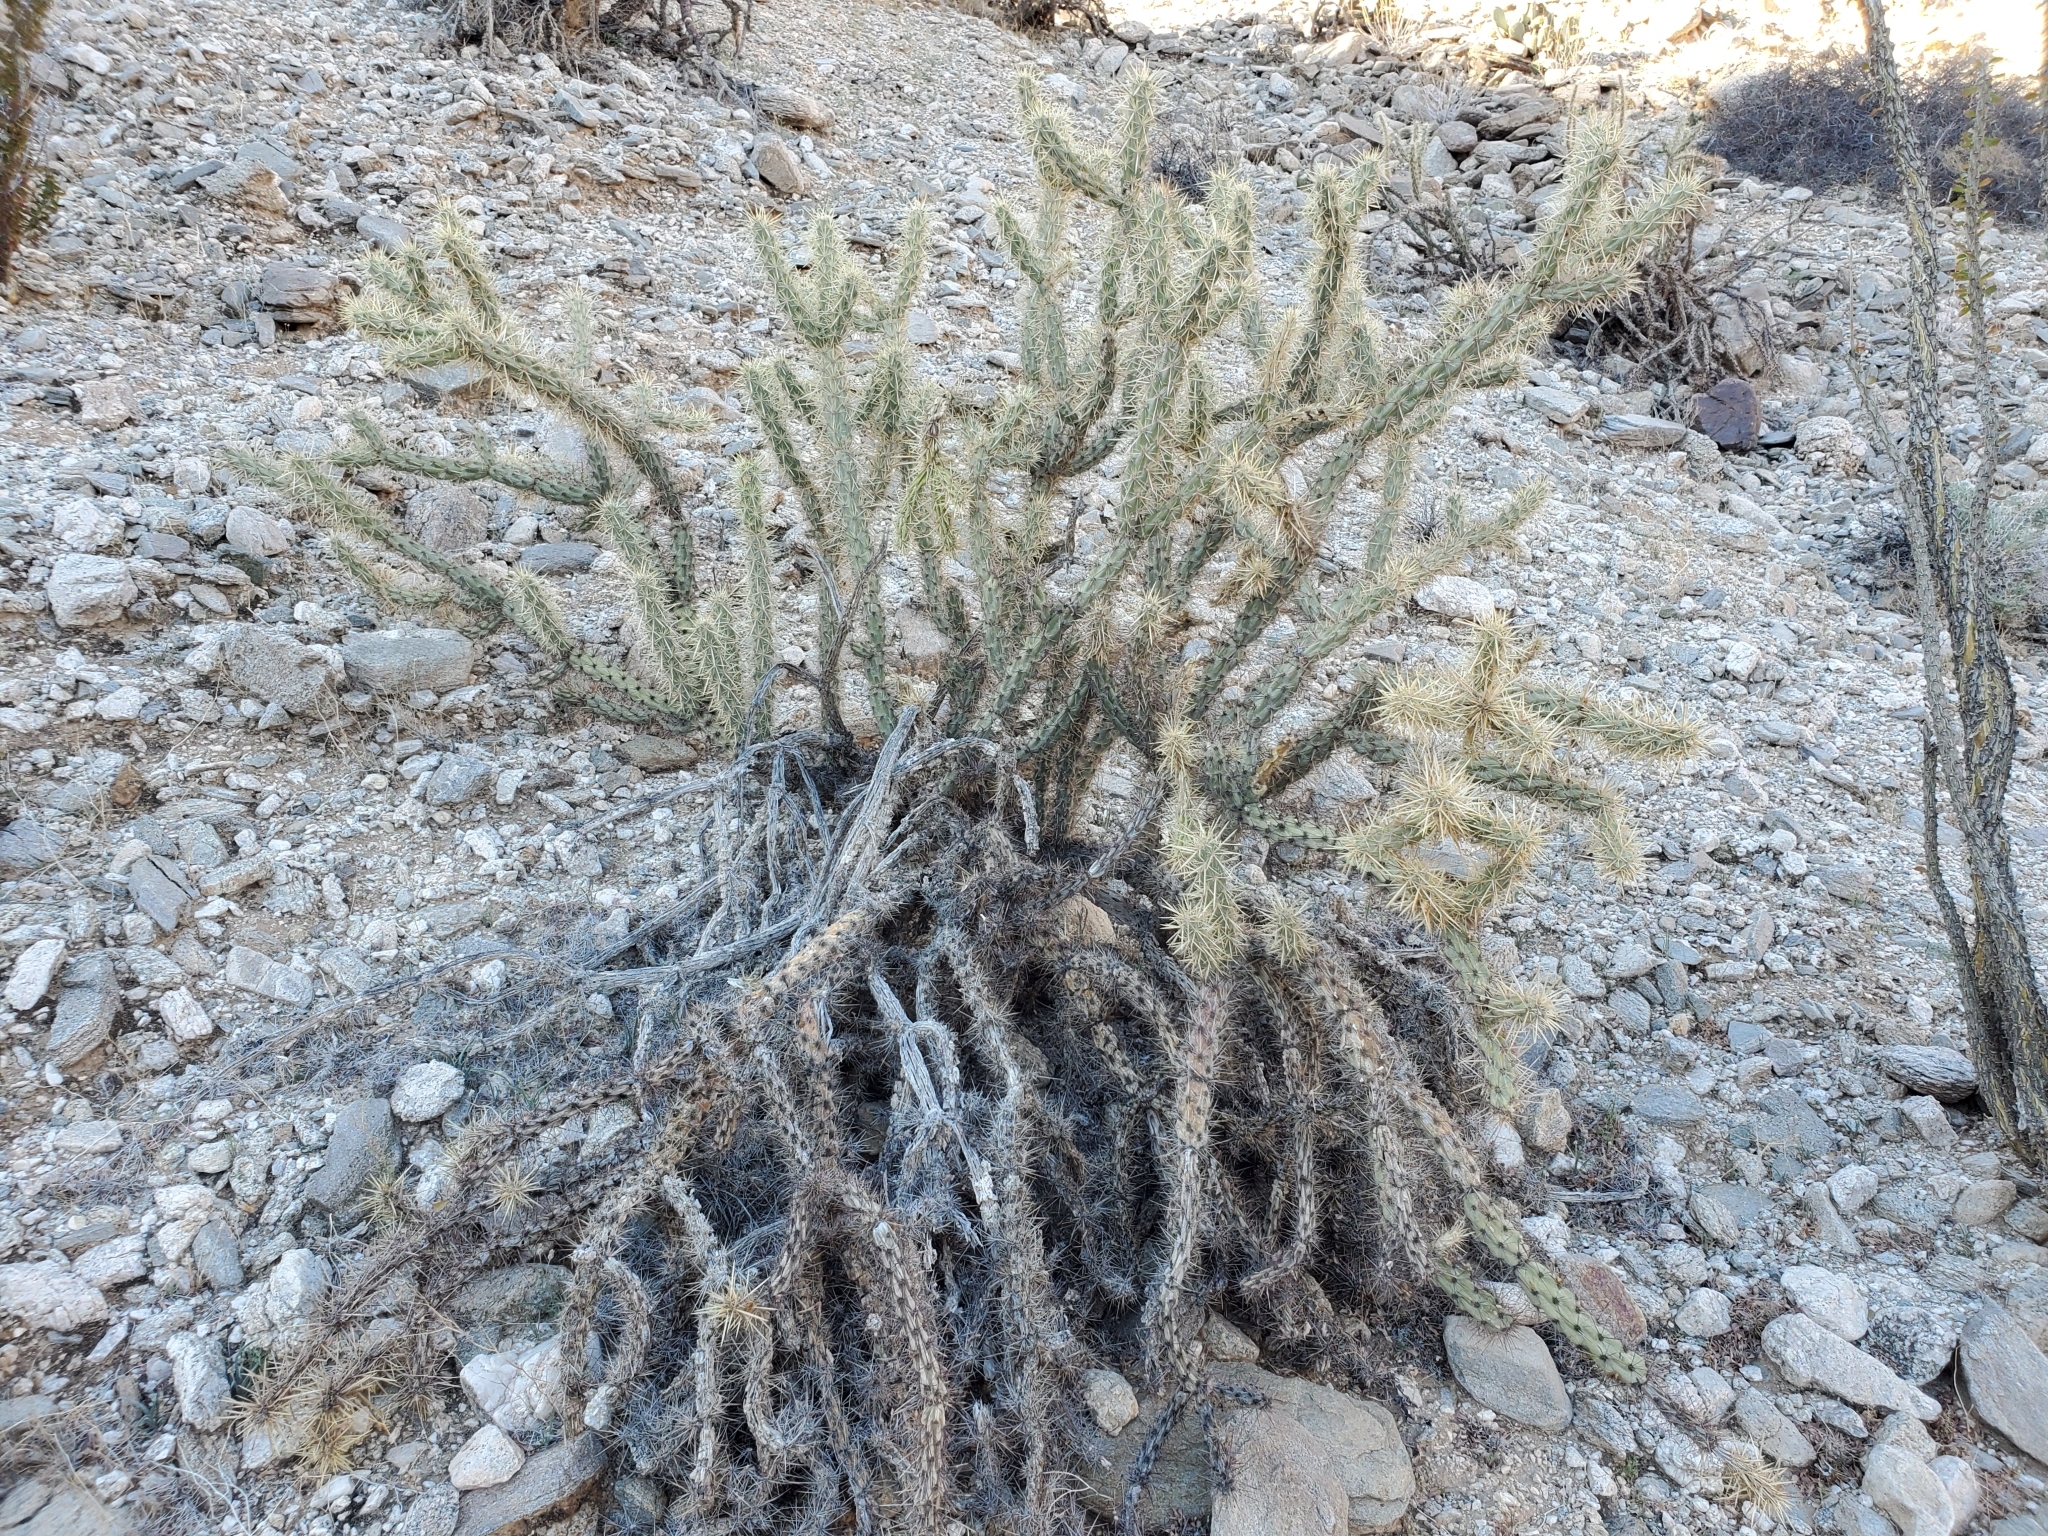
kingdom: Plantae
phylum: Tracheophyta
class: Magnoliopsida
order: Caryophyllales
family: Cactaceae
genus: Cylindropuntia
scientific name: Cylindropuntia acanthocarpa
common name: Buckhorn cholla
